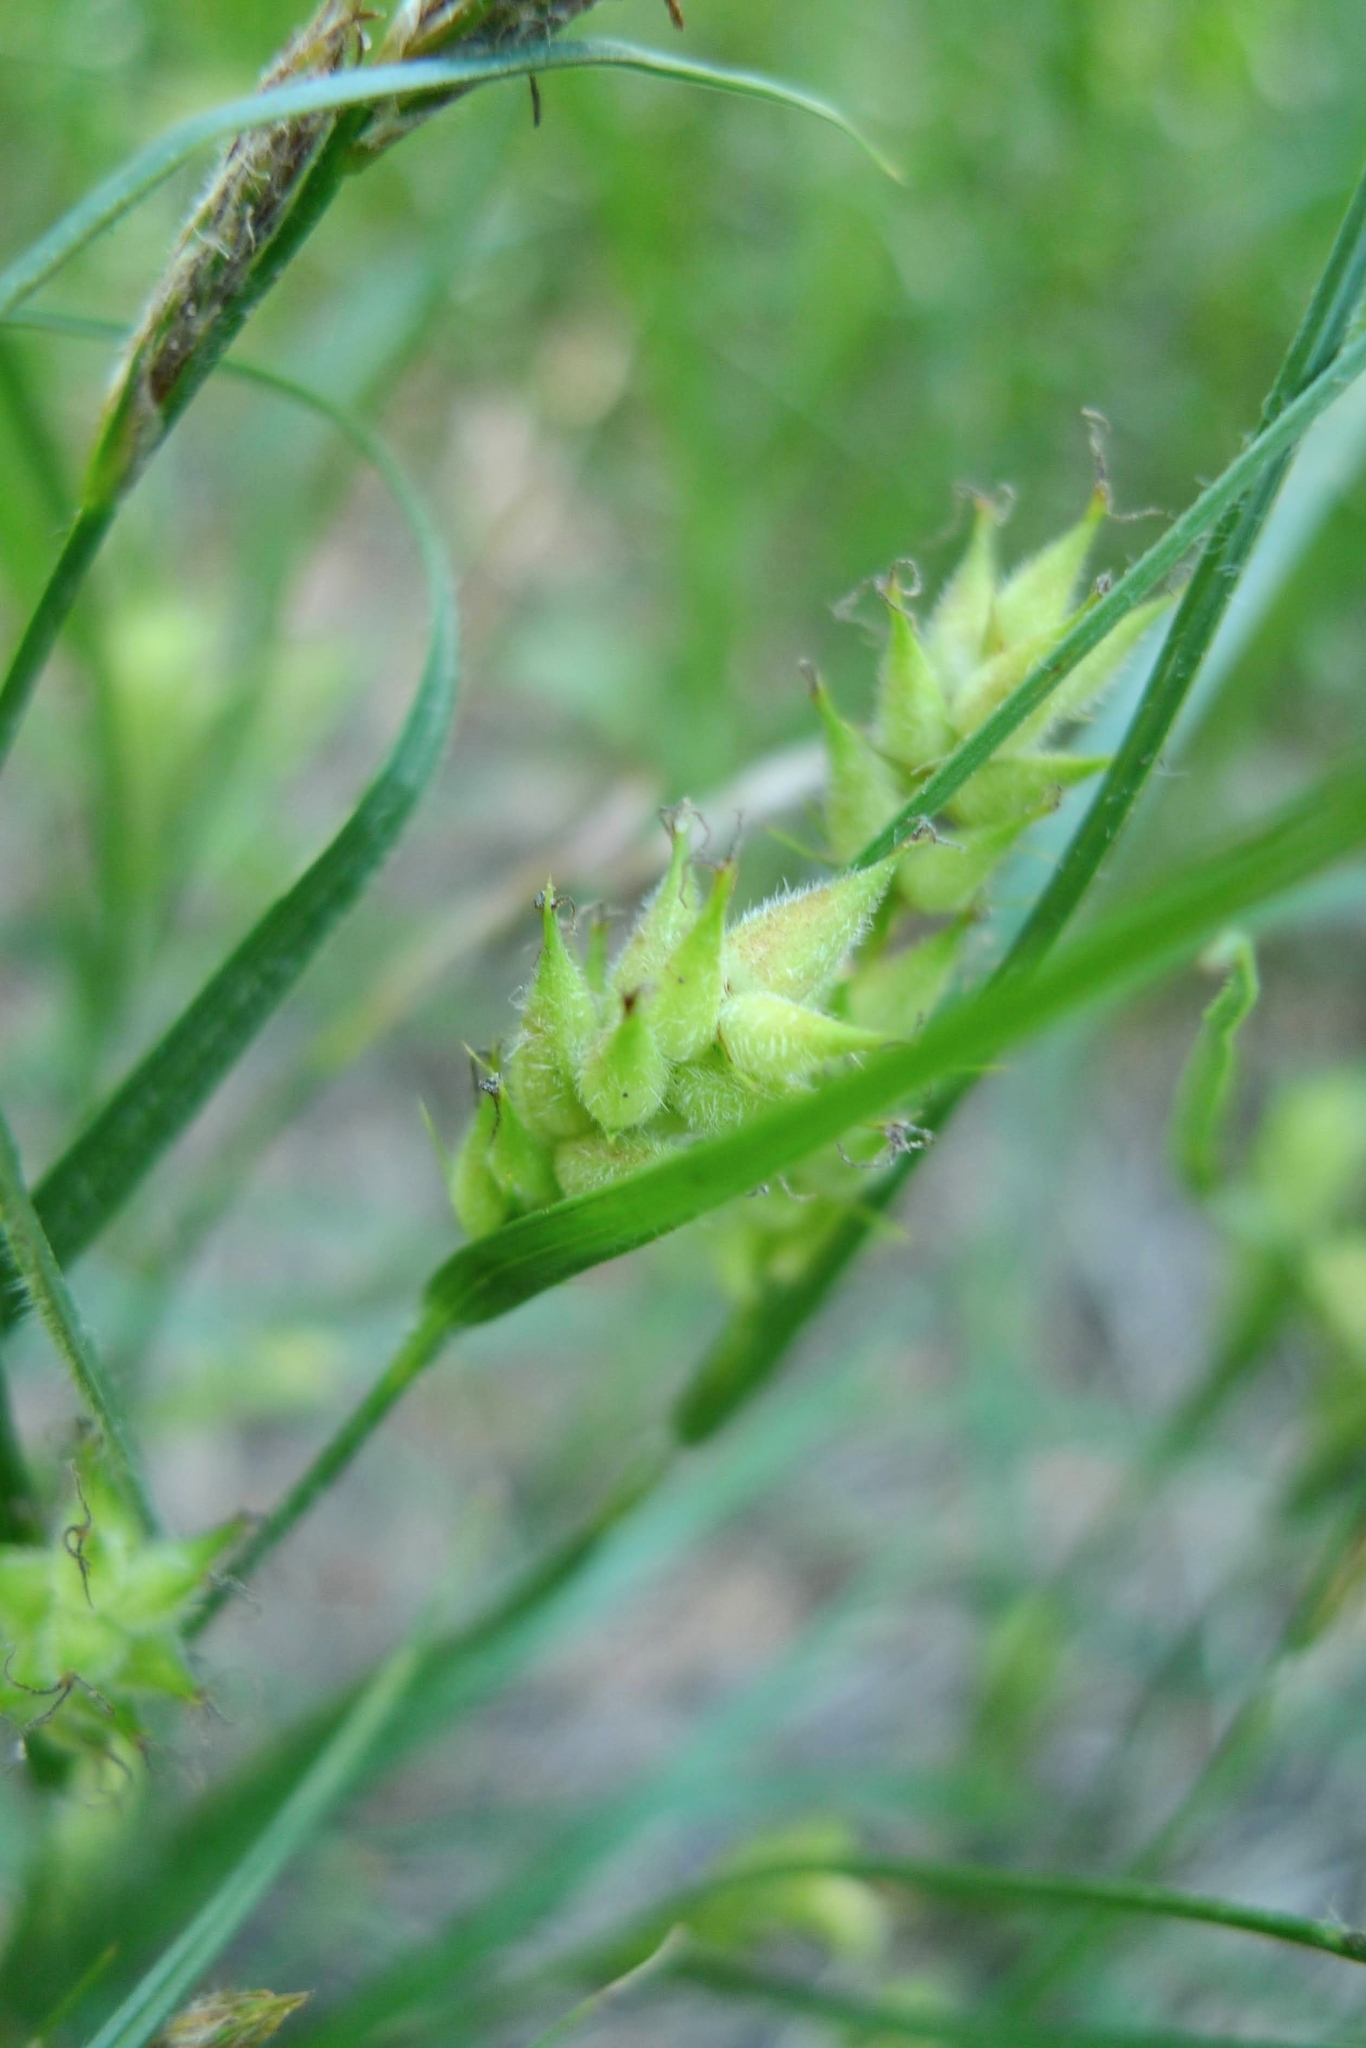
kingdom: Plantae
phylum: Tracheophyta
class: Liliopsida
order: Poales
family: Cyperaceae
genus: Carex
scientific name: Carex hirta
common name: Hairy sedge
